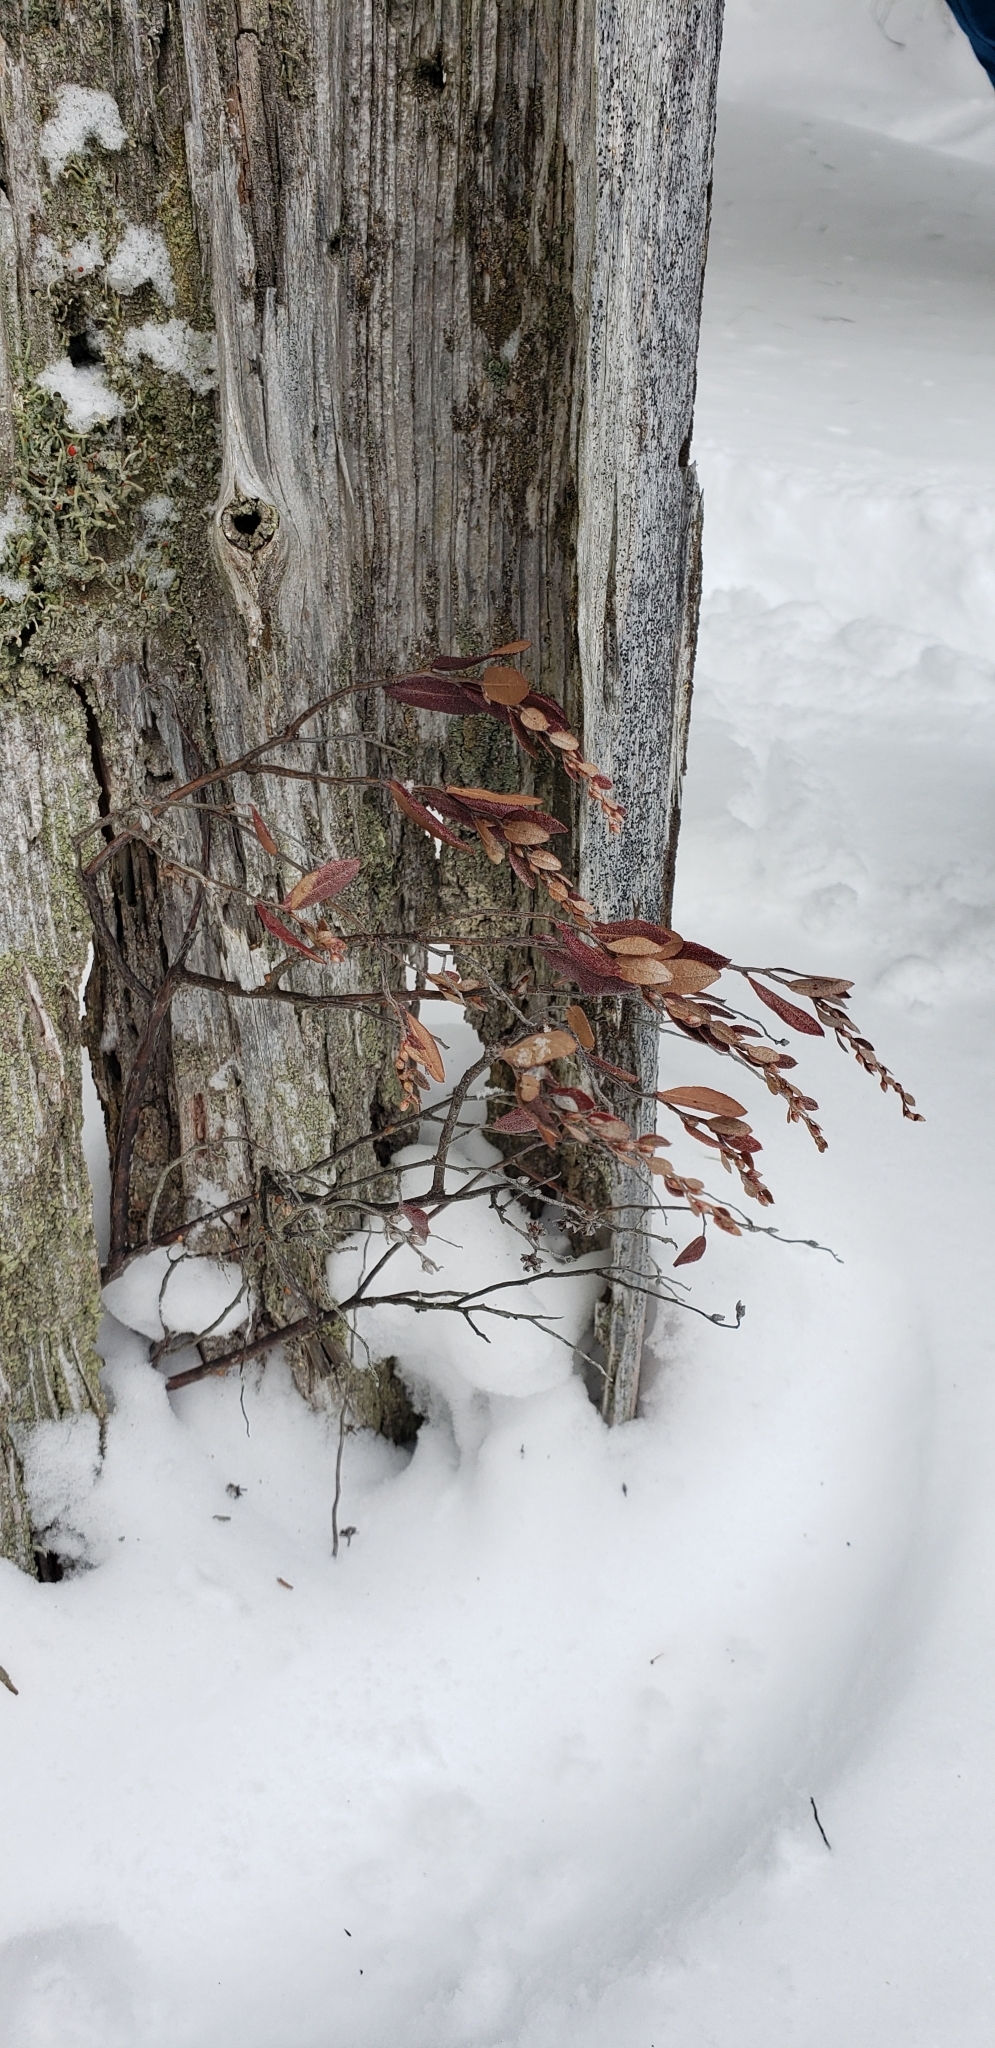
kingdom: Plantae
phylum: Tracheophyta
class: Magnoliopsida
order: Ericales
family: Ericaceae
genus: Chamaedaphne
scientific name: Chamaedaphne calyculata
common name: Leatherleaf
